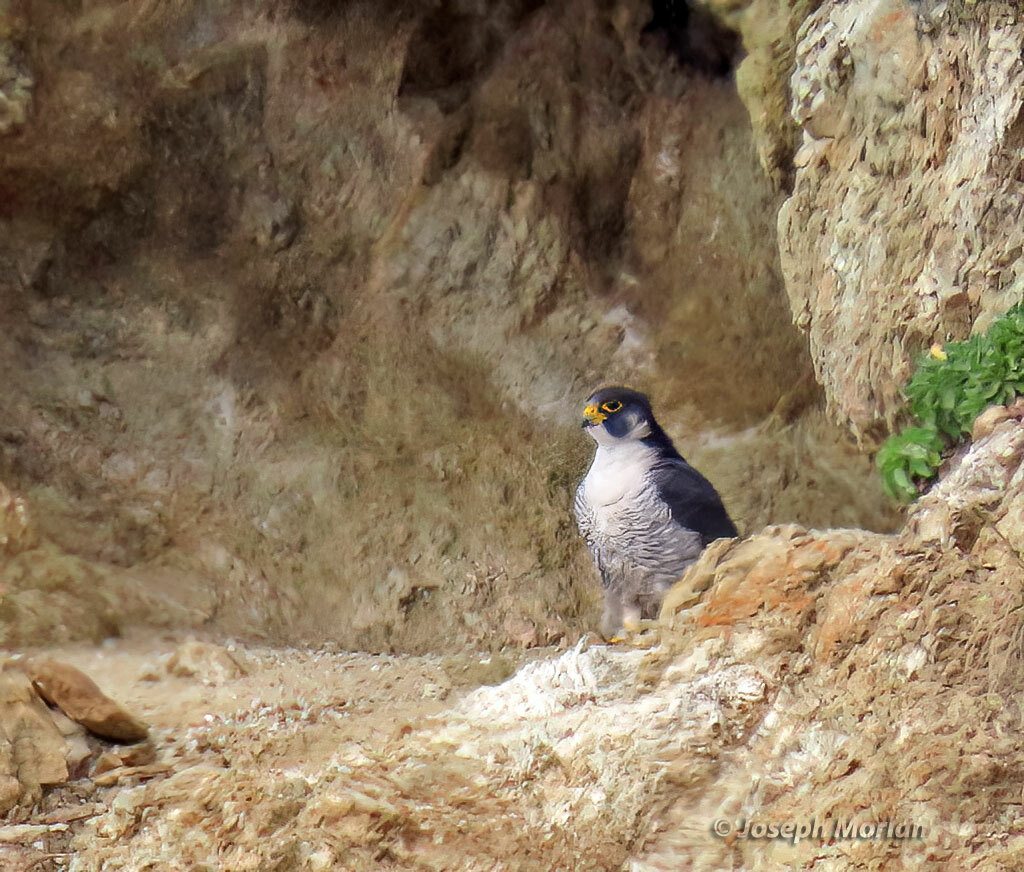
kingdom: Animalia
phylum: Chordata
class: Aves
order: Falconiformes
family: Falconidae
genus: Falco
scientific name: Falco peregrinus
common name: Peregrine falcon
